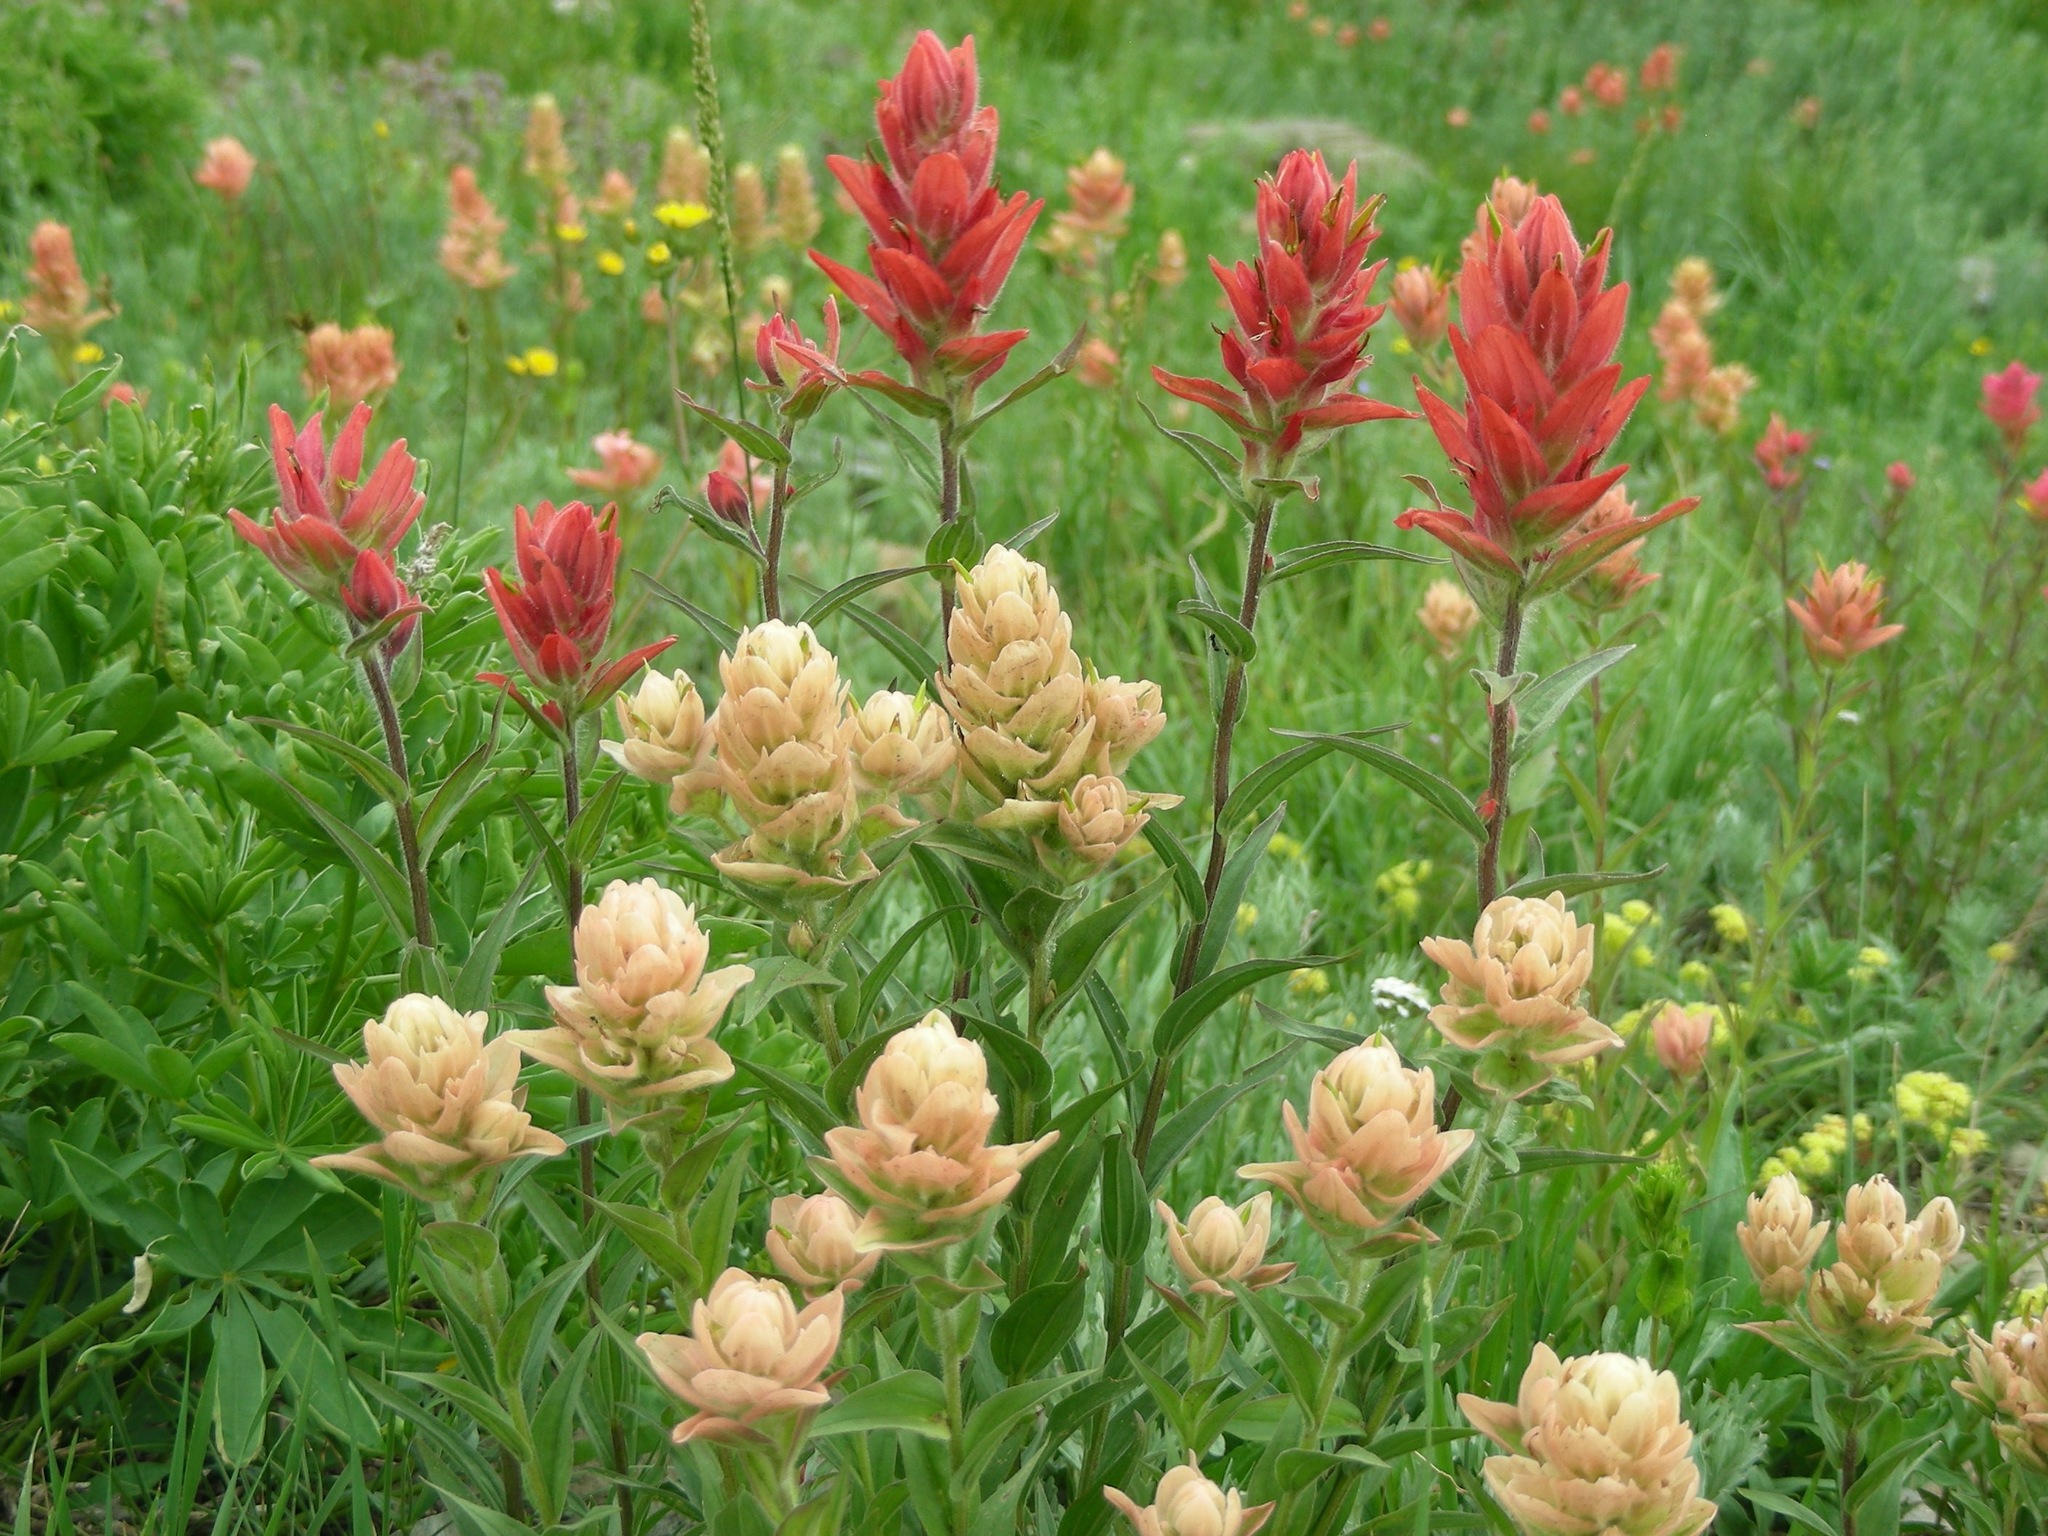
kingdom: Plantae
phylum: Tracheophyta
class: Magnoliopsida
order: Lamiales
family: Orobanchaceae
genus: Castilleja
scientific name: Castilleja rhexifolia
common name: Rocky mountain paintbrush
